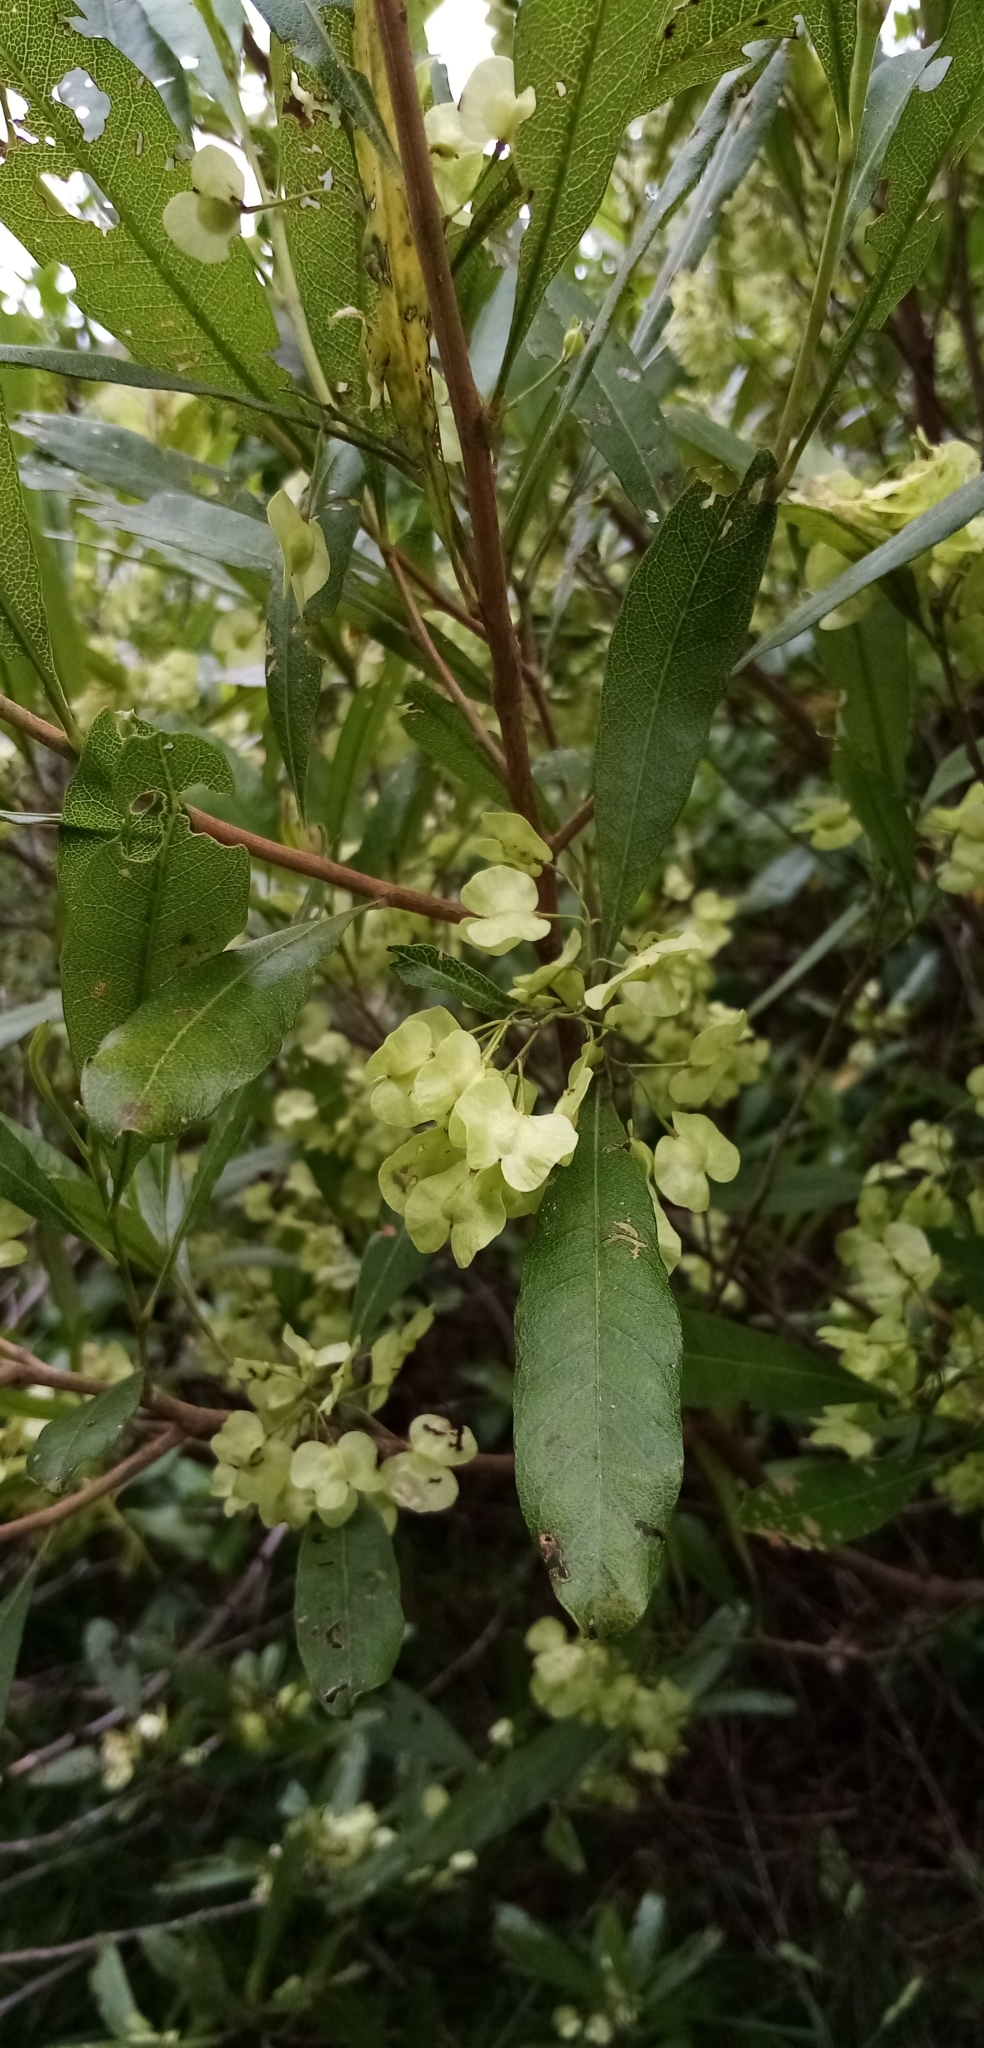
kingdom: Plantae
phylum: Tracheophyta
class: Magnoliopsida
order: Sapindales
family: Sapindaceae
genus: Dodonaea
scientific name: Dodonaea viscosa
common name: Hopbush
